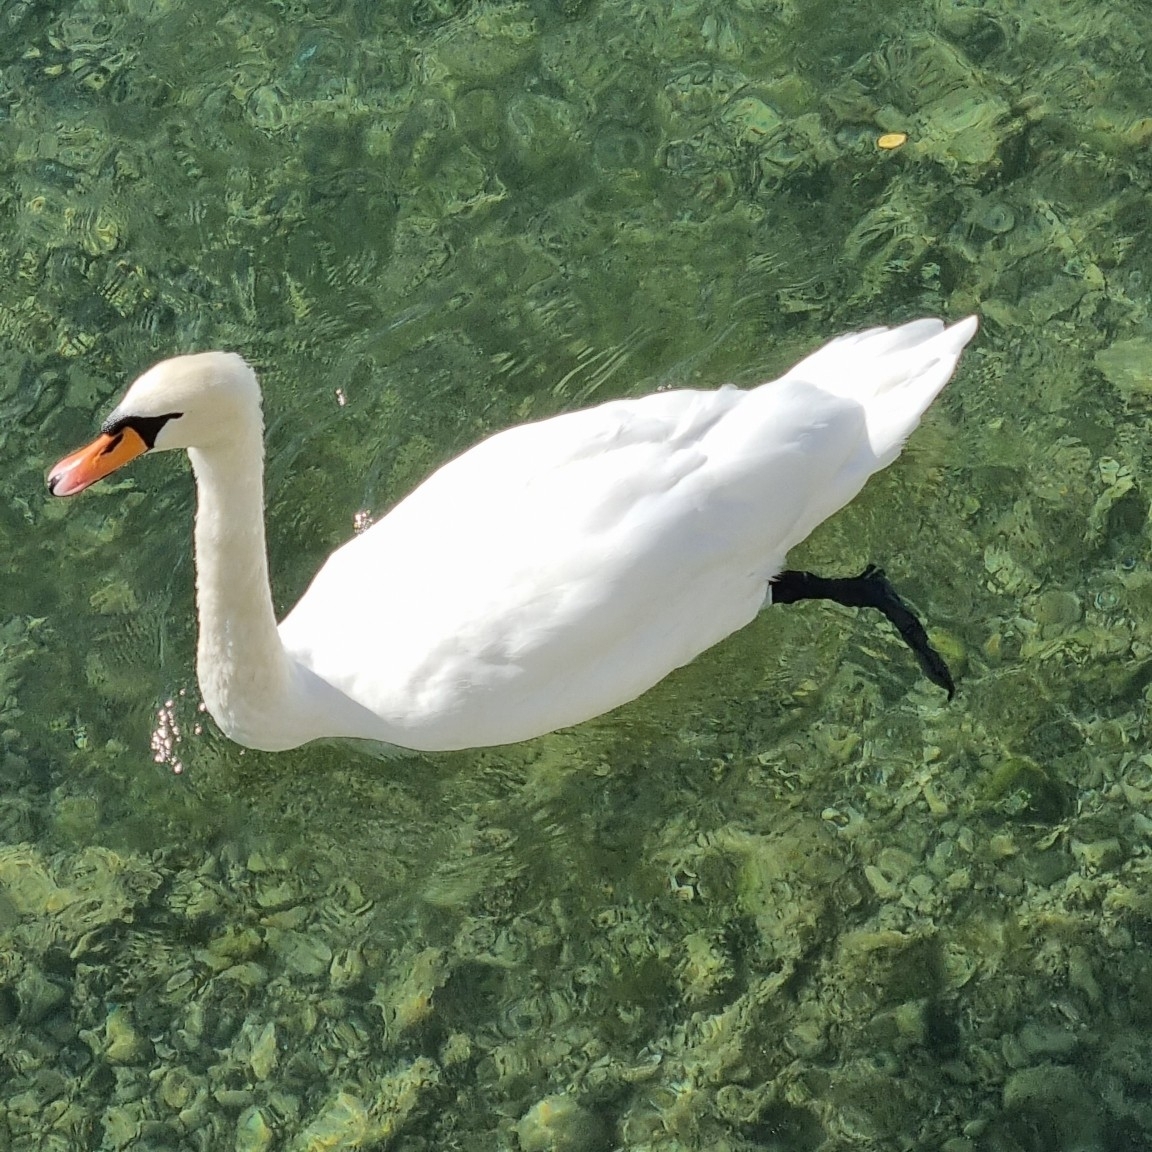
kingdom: Animalia
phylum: Chordata
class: Aves
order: Anseriformes
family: Anatidae
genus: Cygnus
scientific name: Cygnus olor
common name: Mute swan
